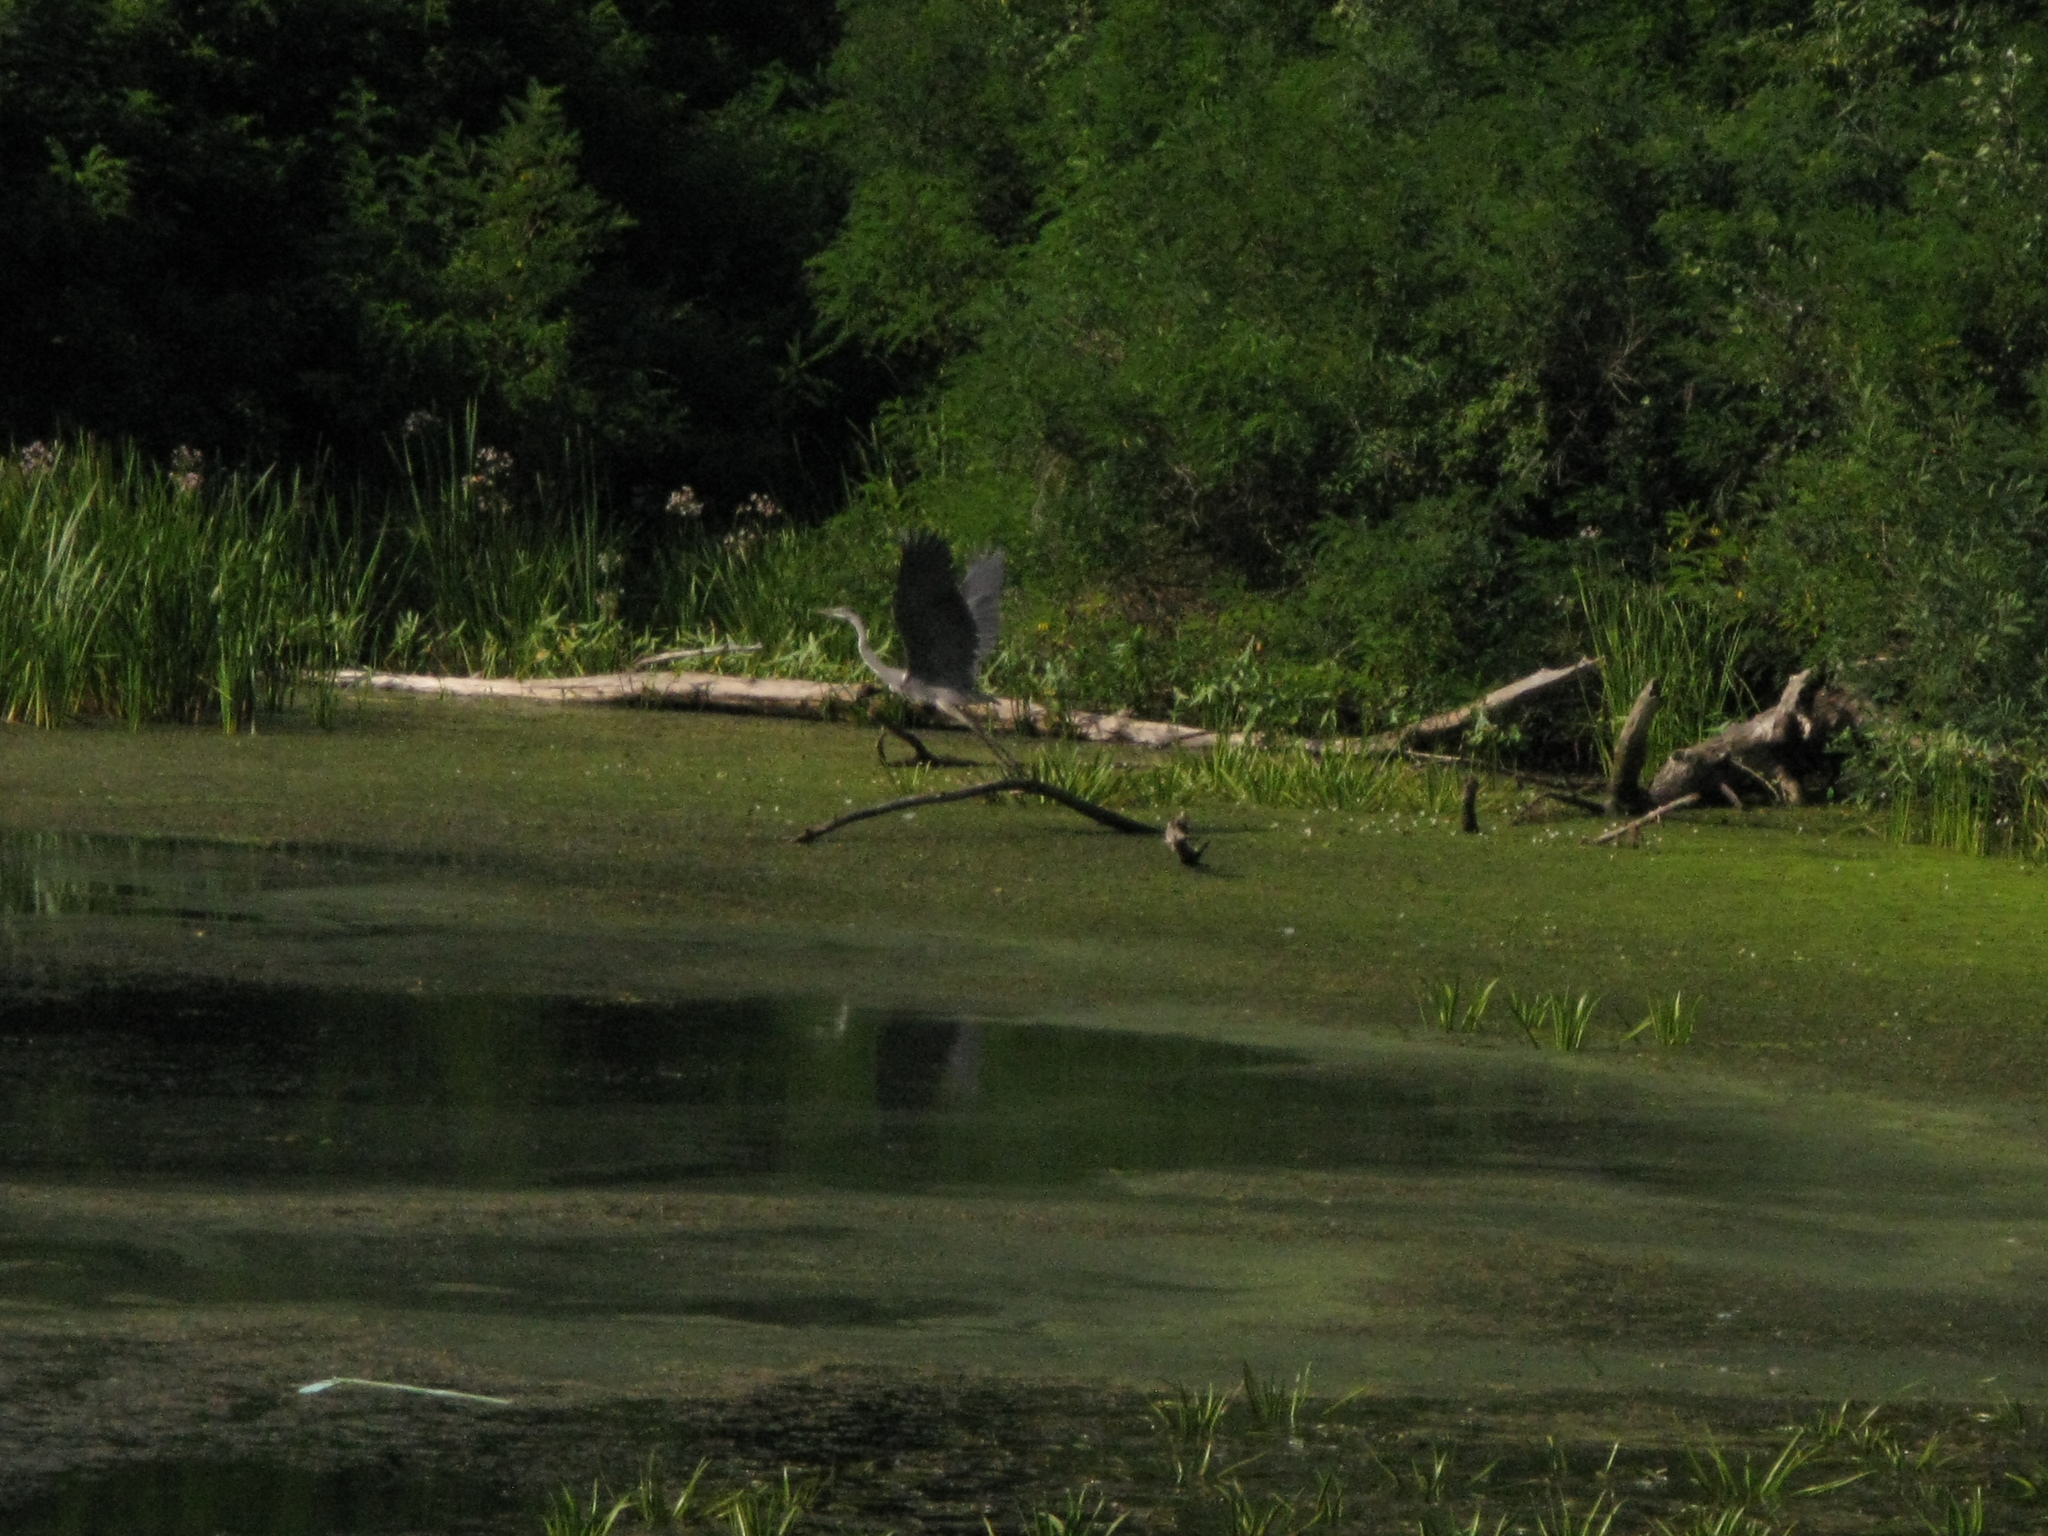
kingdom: Animalia
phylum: Chordata
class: Aves
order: Pelecaniformes
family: Ardeidae
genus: Ardea
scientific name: Ardea cinerea
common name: Grey heron
